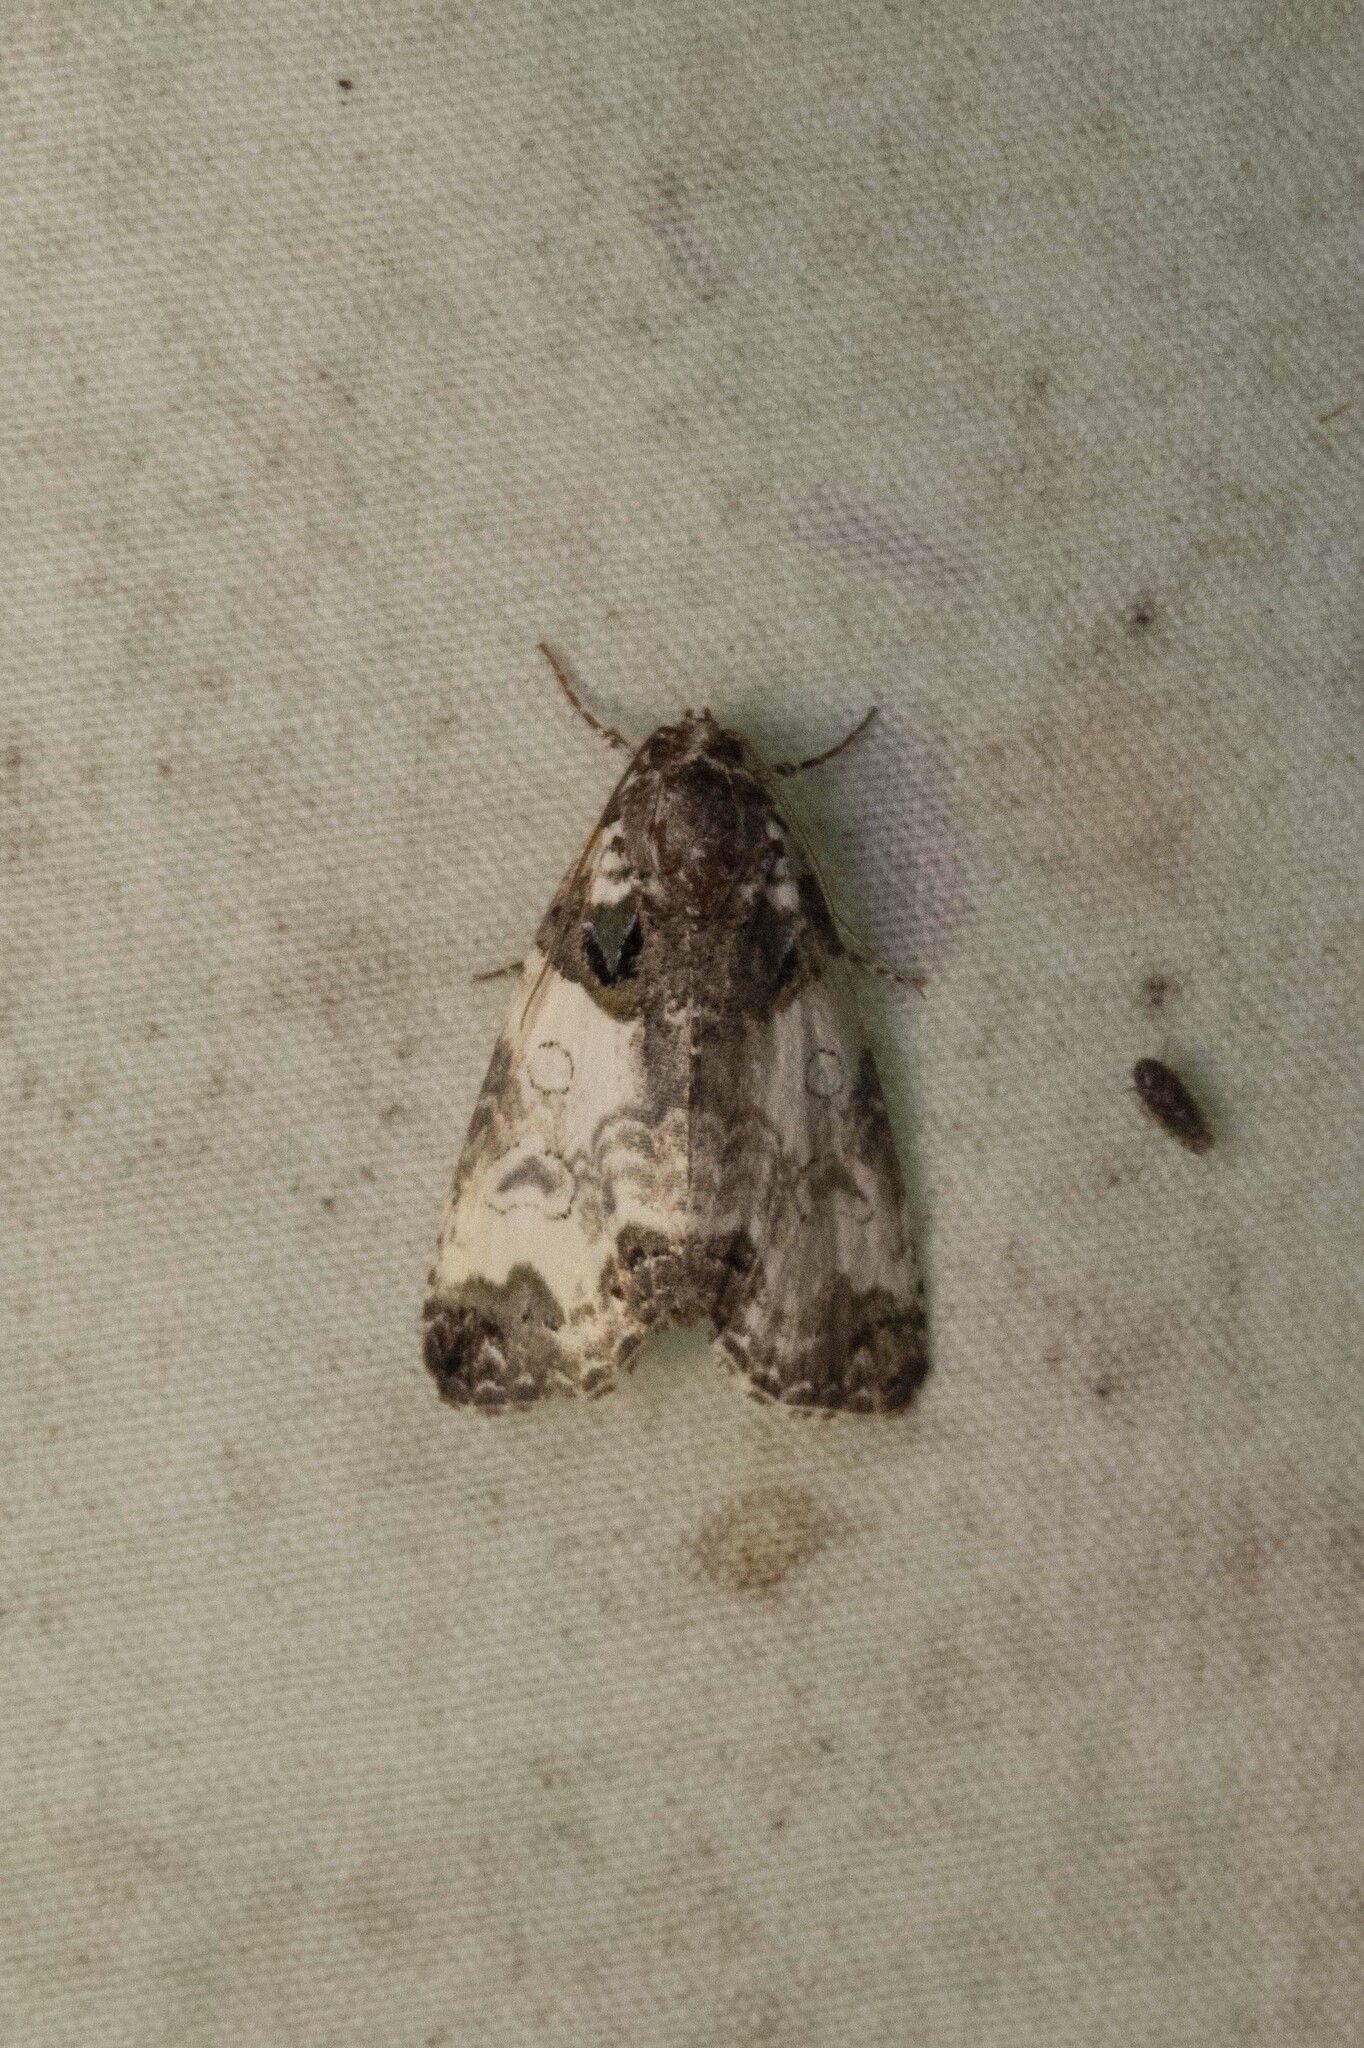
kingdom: Animalia
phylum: Arthropoda
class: Insecta
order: Lepidoptera
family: Noctuidae
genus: Cerma
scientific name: Cerma cerintha
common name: Tufted bird-dropping moth
